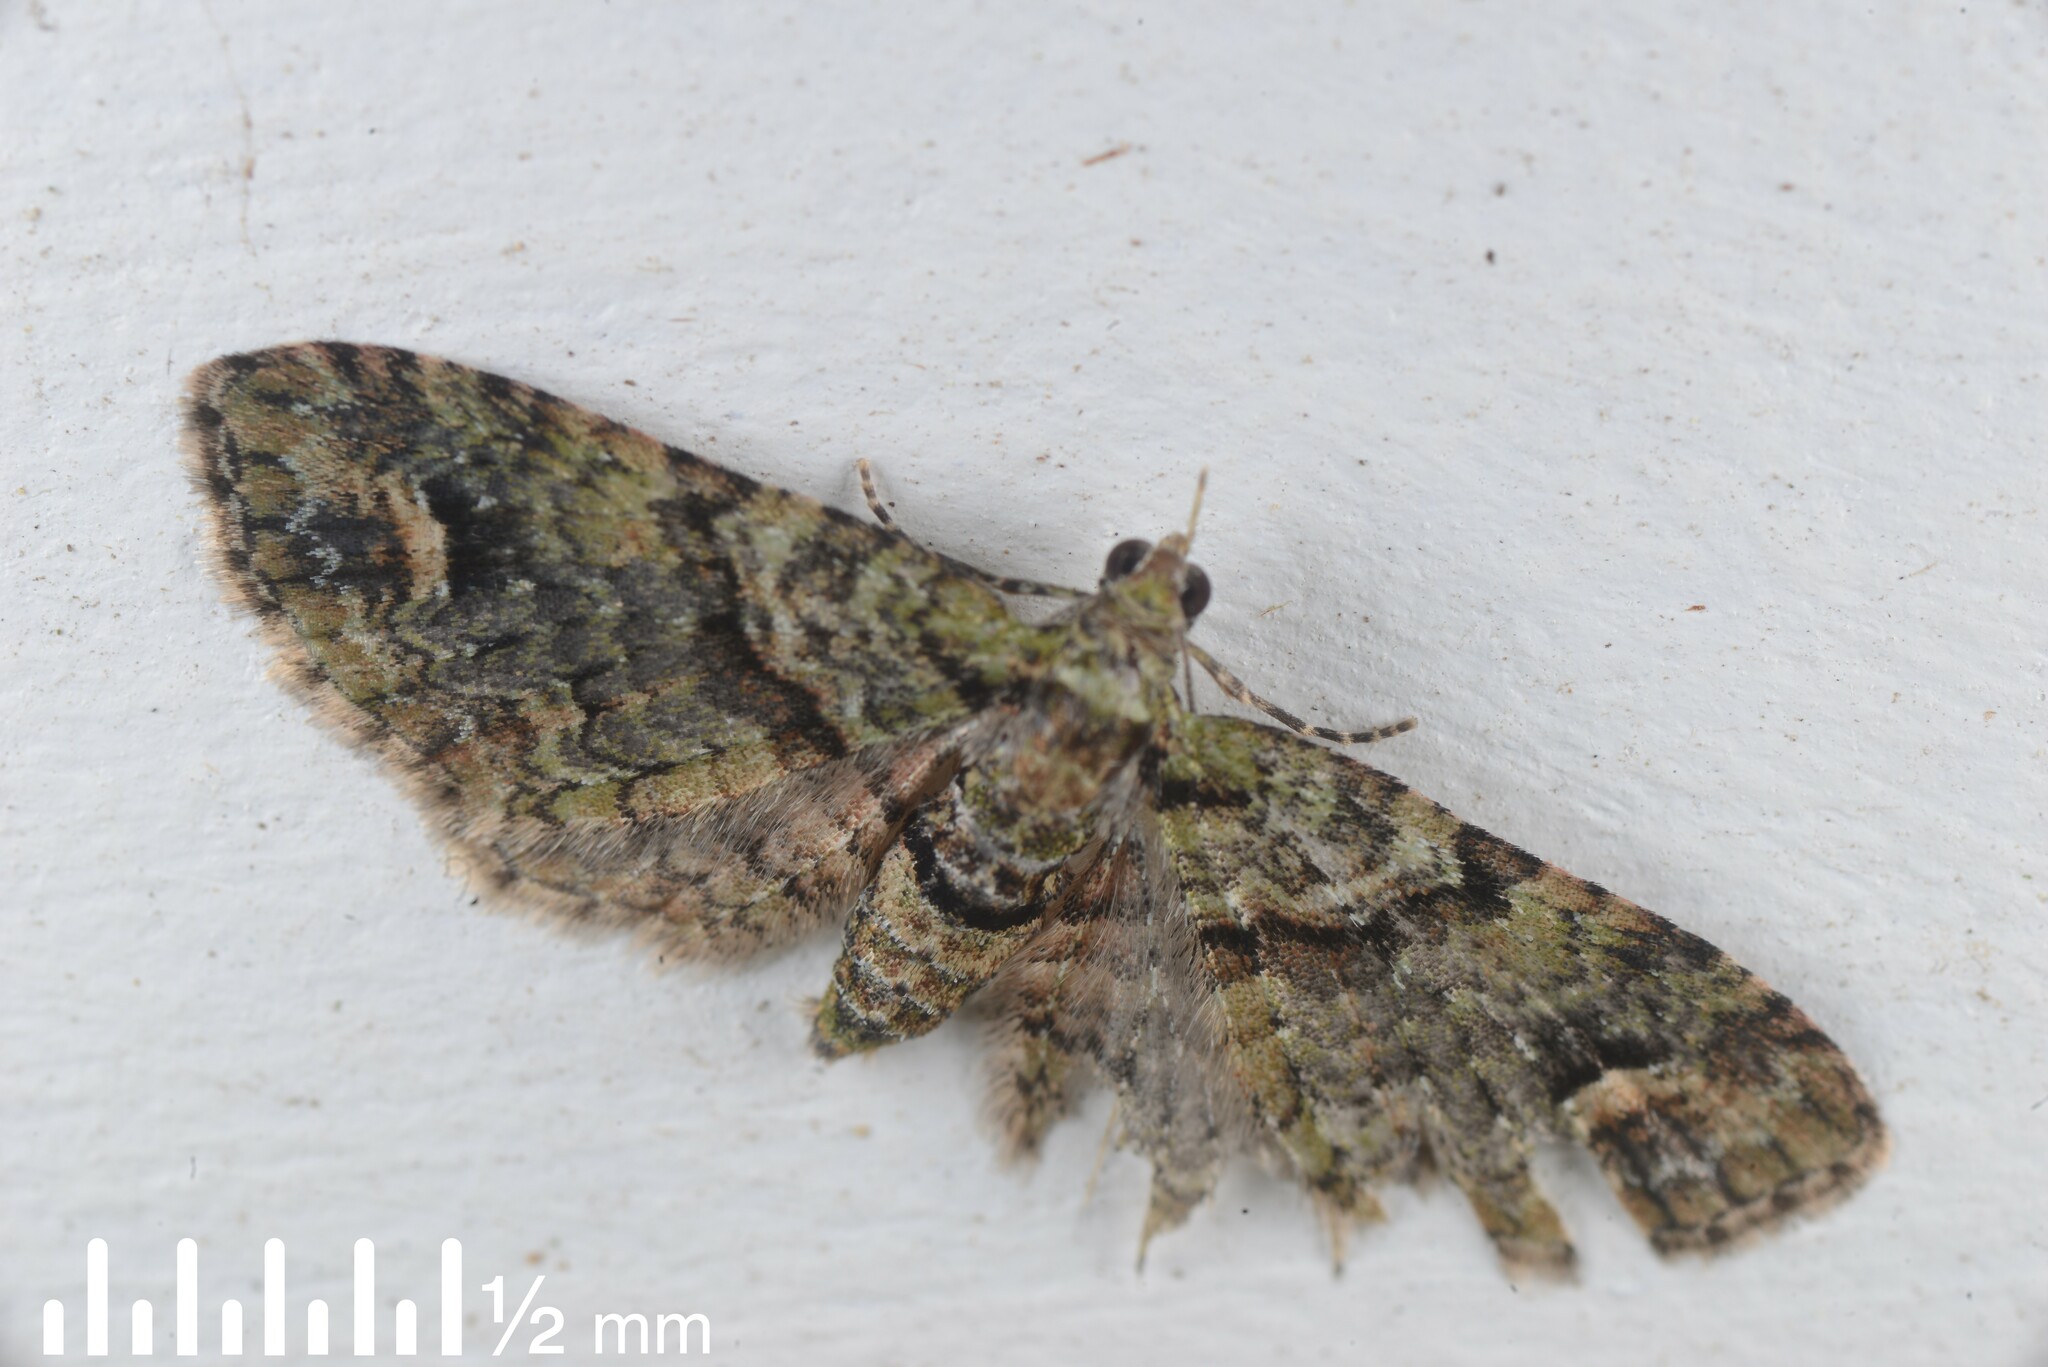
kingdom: Animalia
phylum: Arthropoda
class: Insecta
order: Lepidoptera
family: Geometridae
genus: Idaea
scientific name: Idaea mutanda
